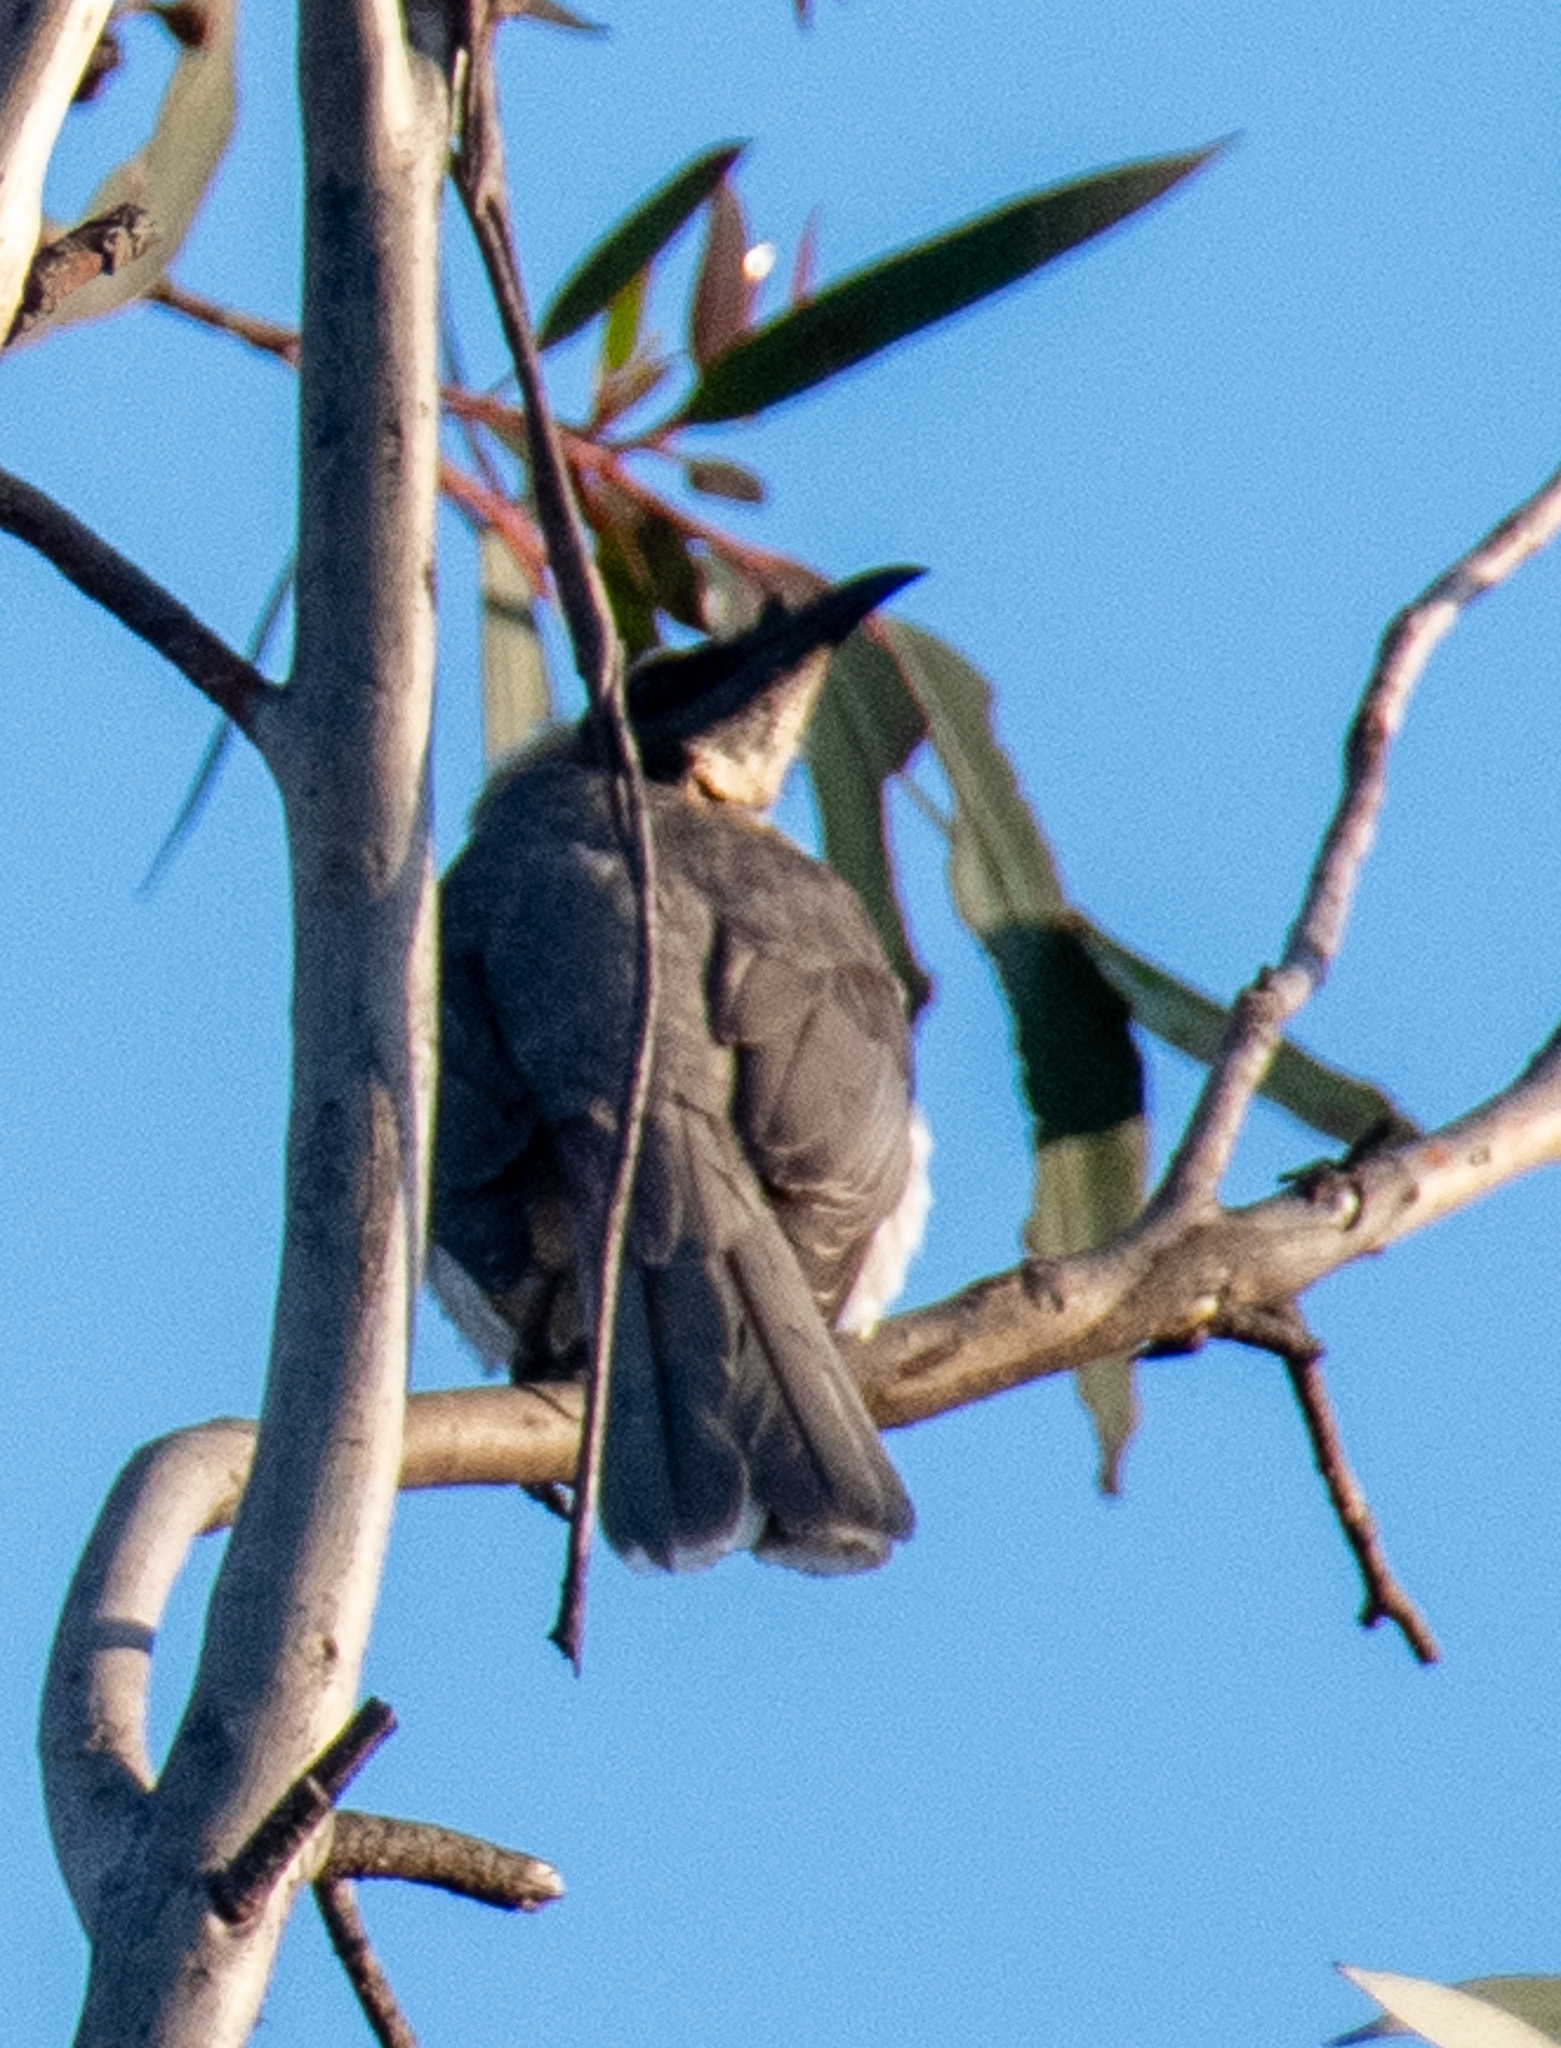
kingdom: Animalia
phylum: Chordata
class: Aves
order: Passeriformes
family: Meliphagidae
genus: Philemon
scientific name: Philemon corniculatus
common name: Noisy friarbird
